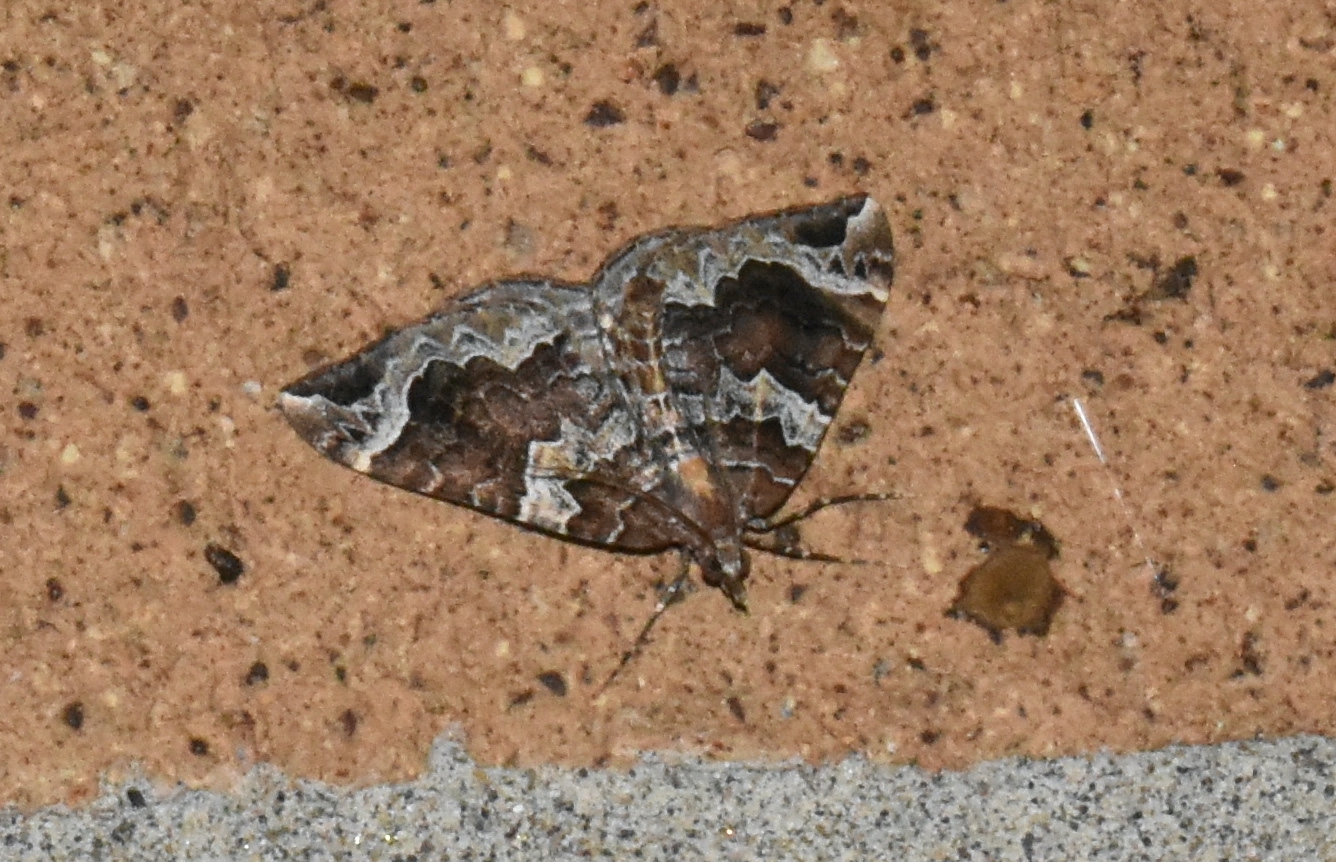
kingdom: Animalia
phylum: Arthropoda
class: Insecta
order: Lepidoptera
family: Geometridae
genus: Eulithis
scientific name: Eulithis xylina
